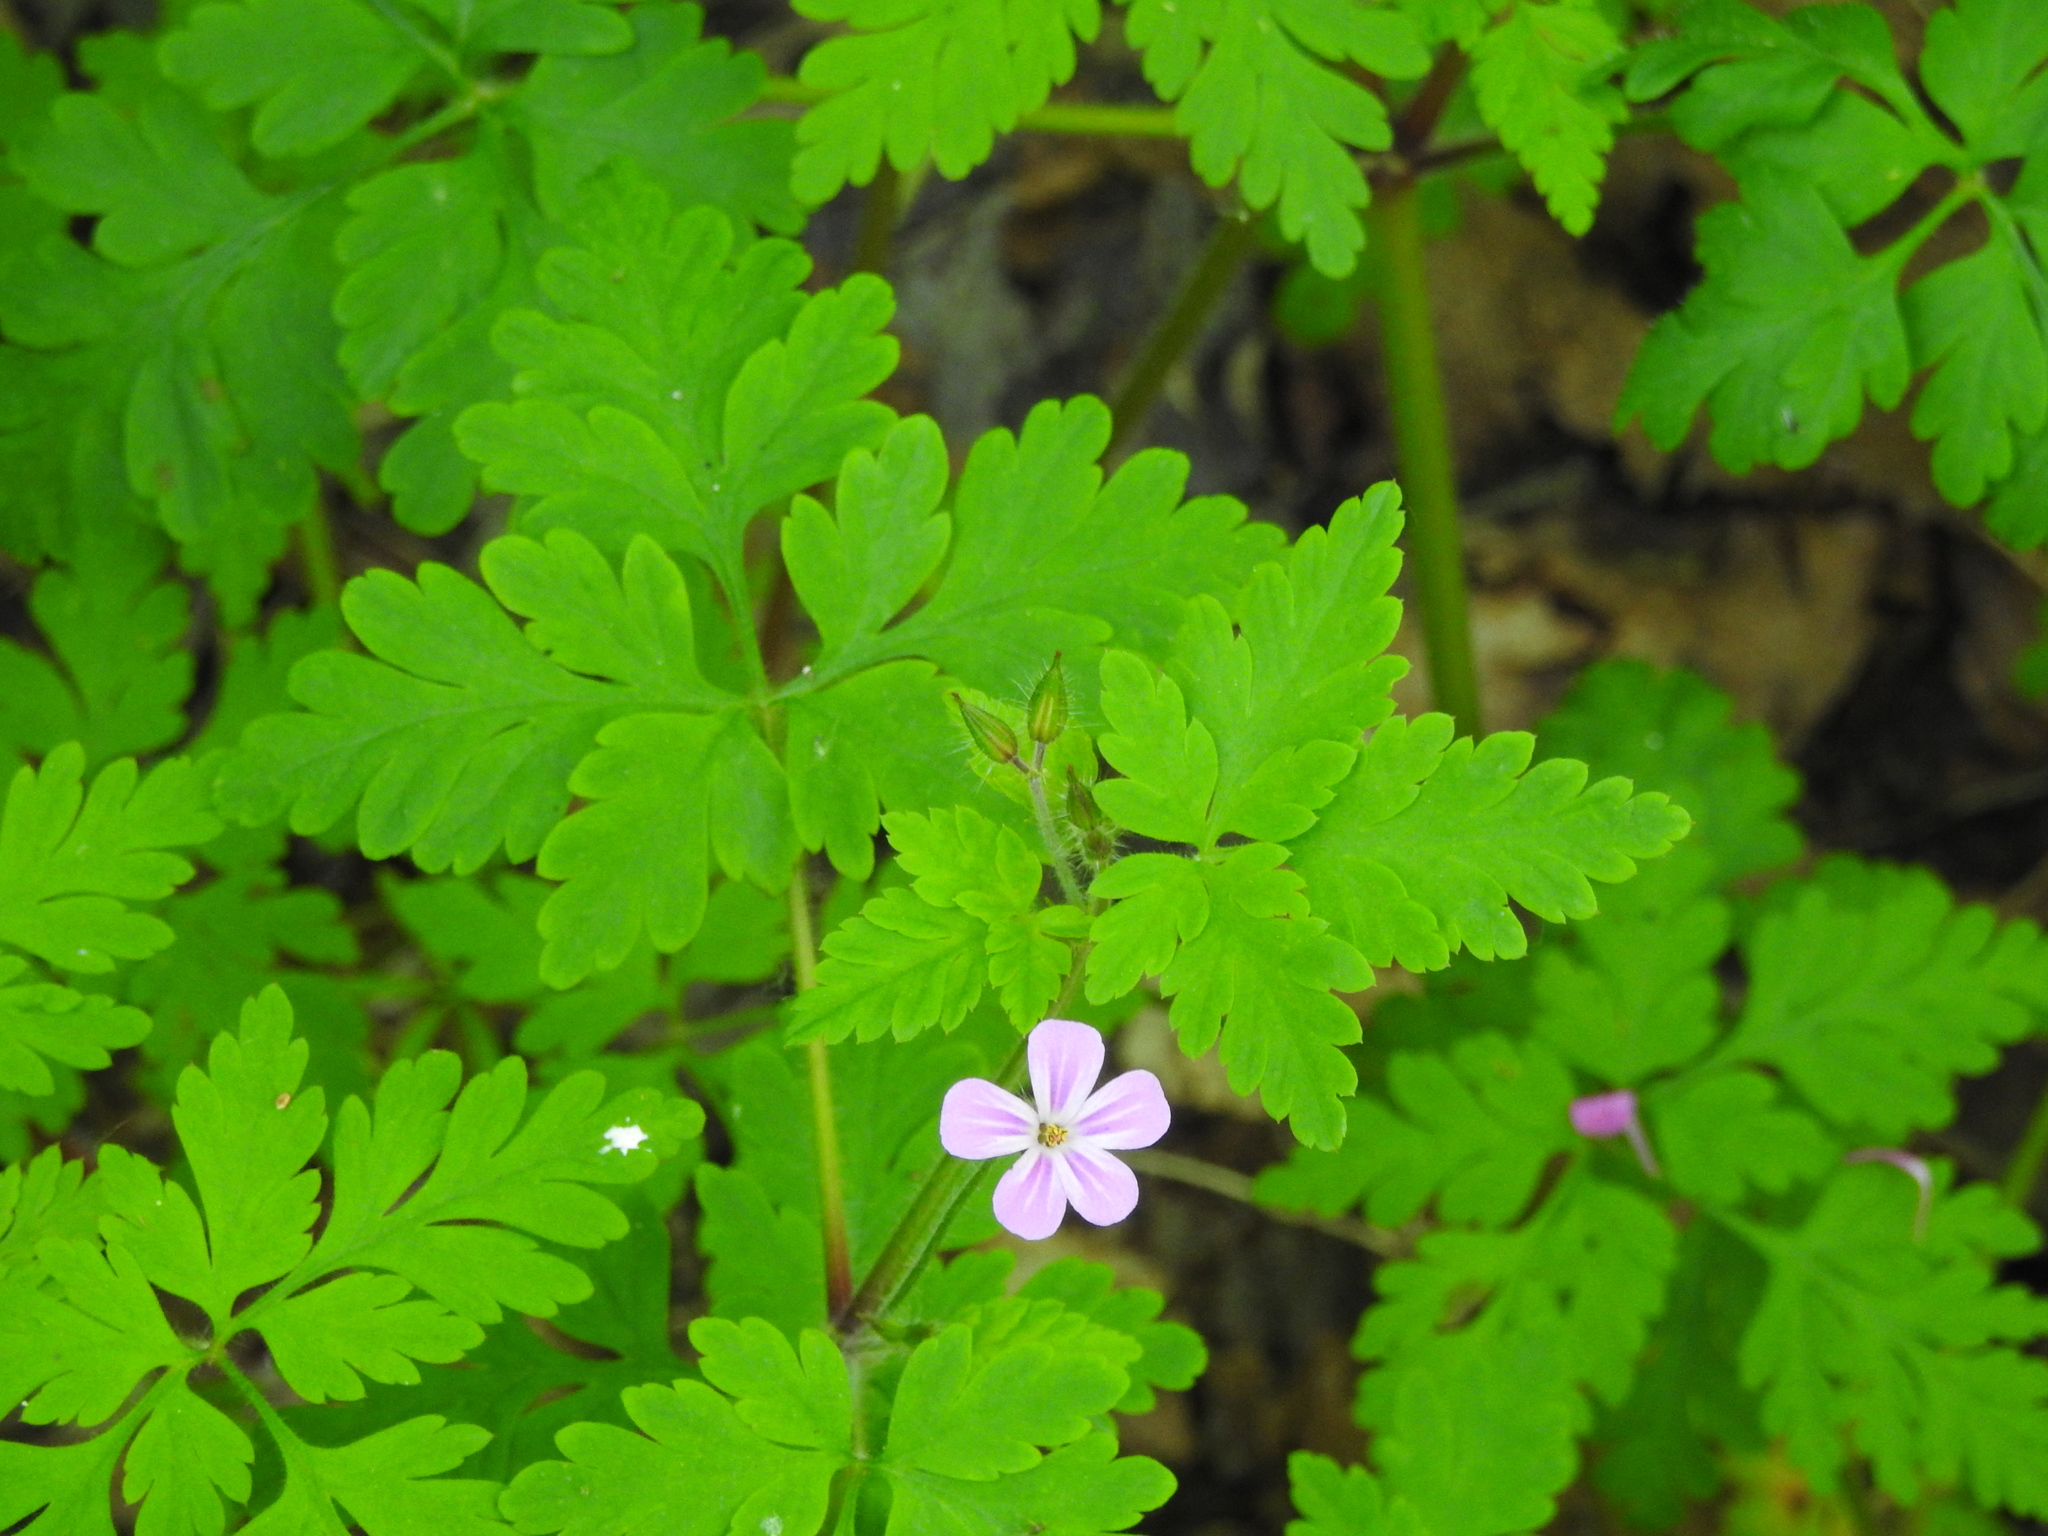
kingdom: Plantae
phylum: Tracheophyta
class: Magnoliopsida
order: Geraniales
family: Geraniaceae
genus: Geranium
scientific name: Geranium robertianum
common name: Herb-robert
